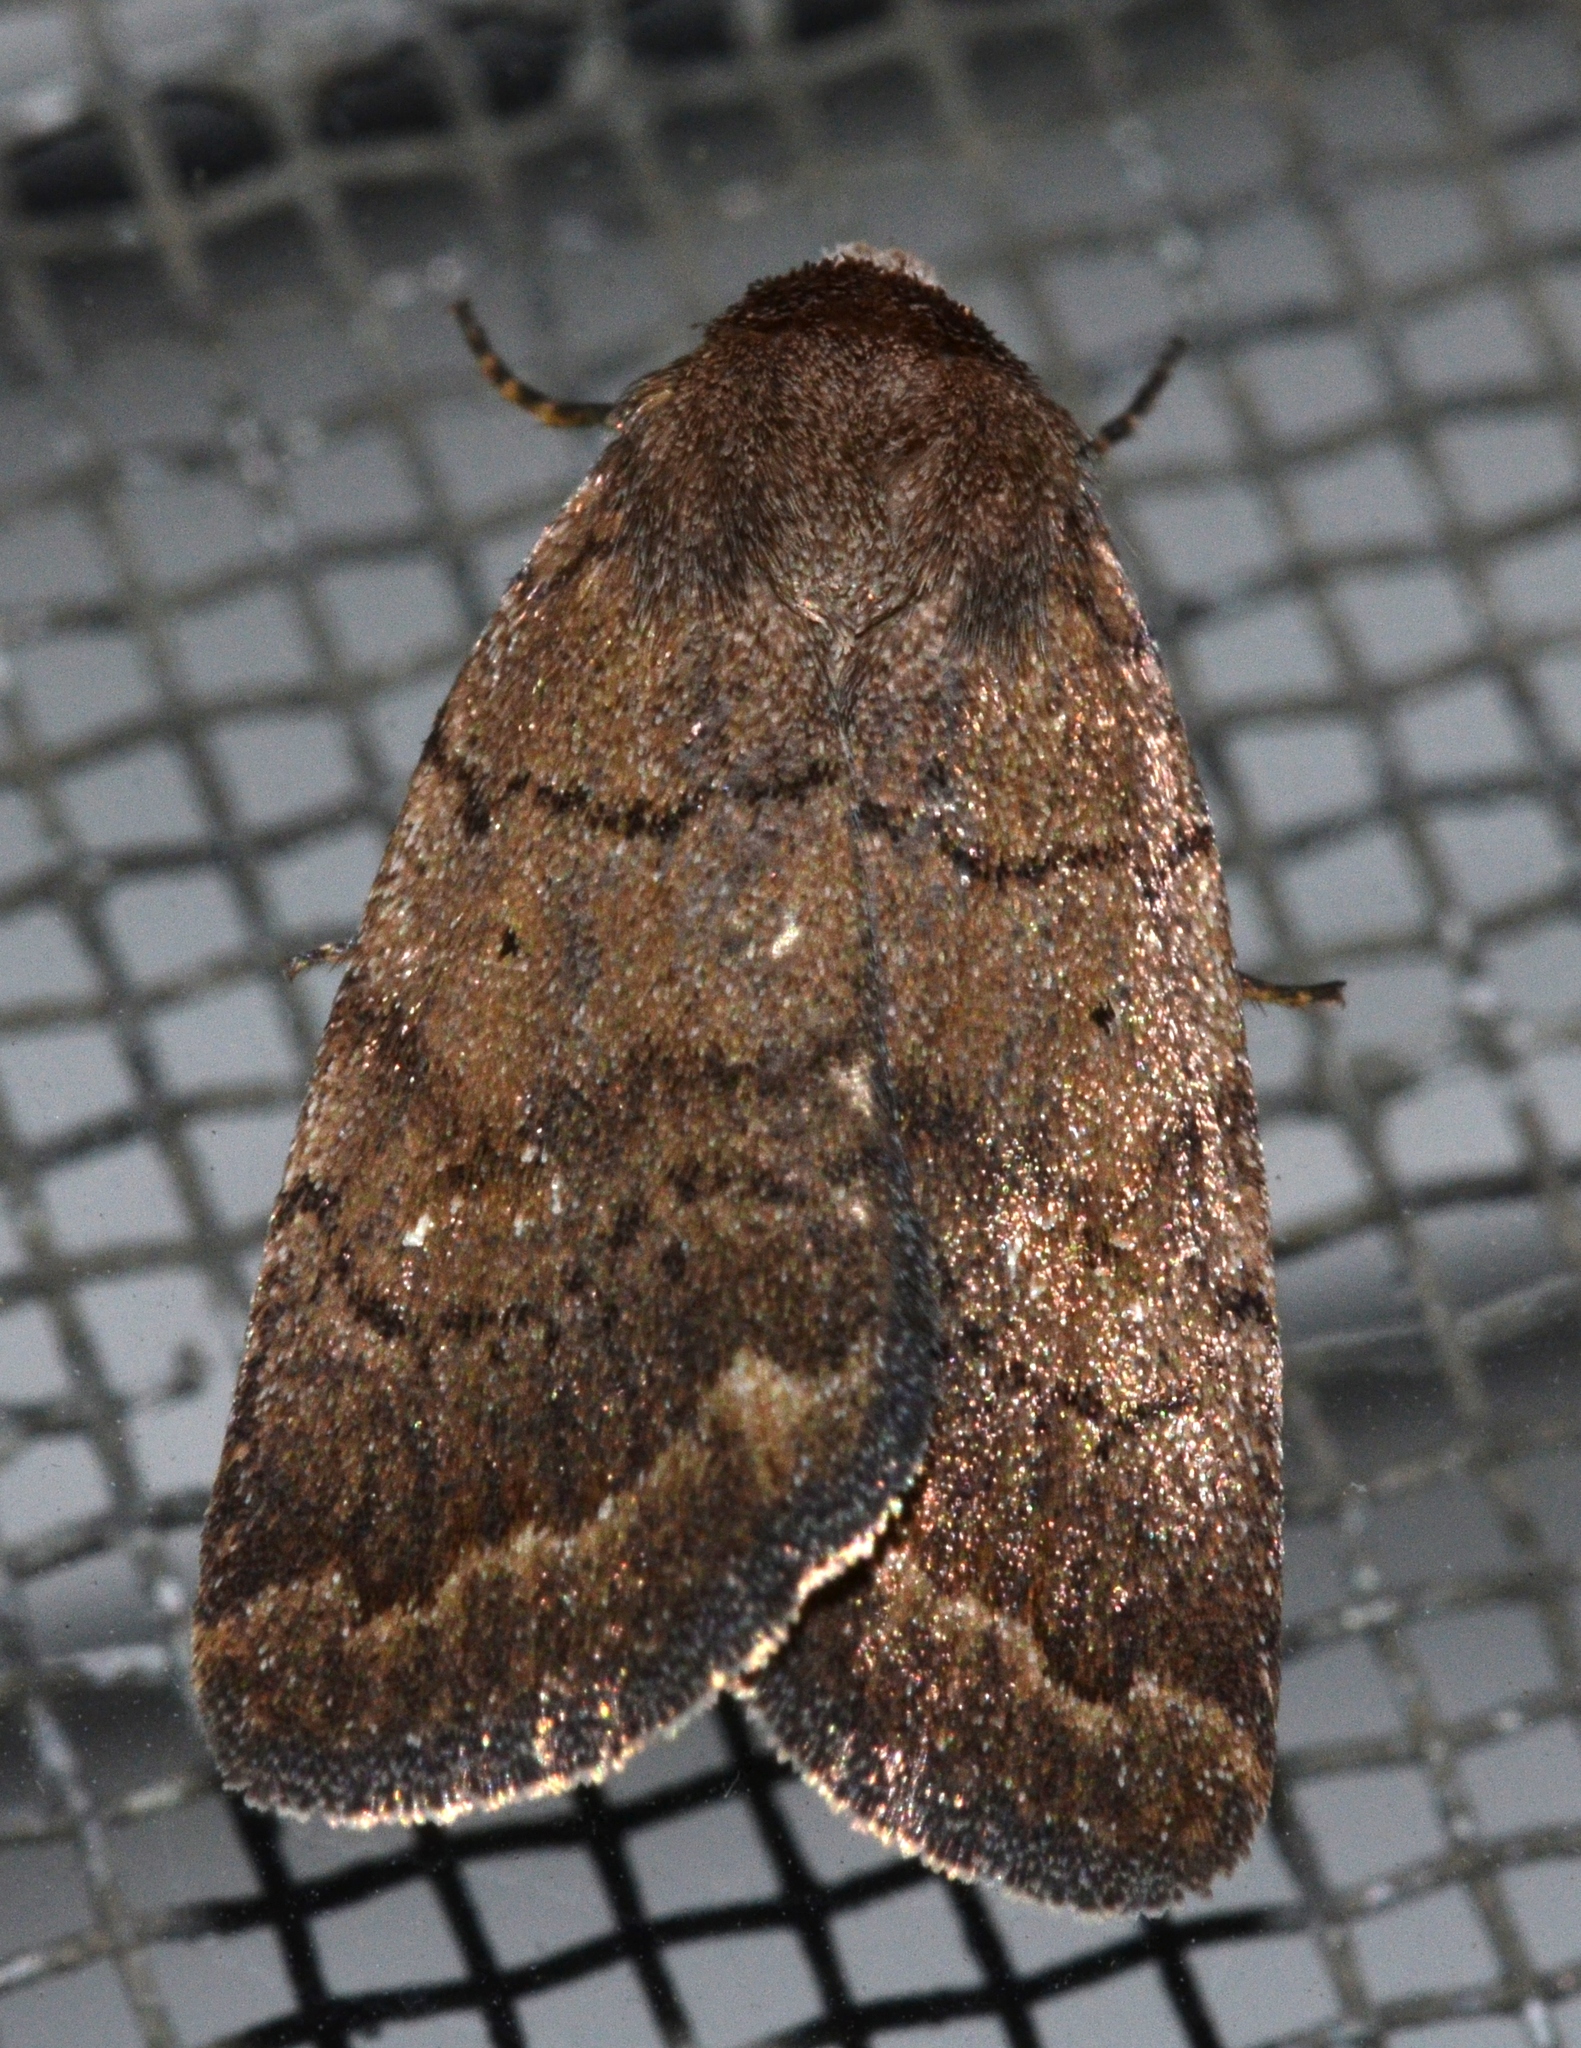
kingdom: Animalia
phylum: Arthropoda
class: Insecta
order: Lepidoptera
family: Noctuidae
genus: Athetis
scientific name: Athetis tarda
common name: Slowpoke moth
